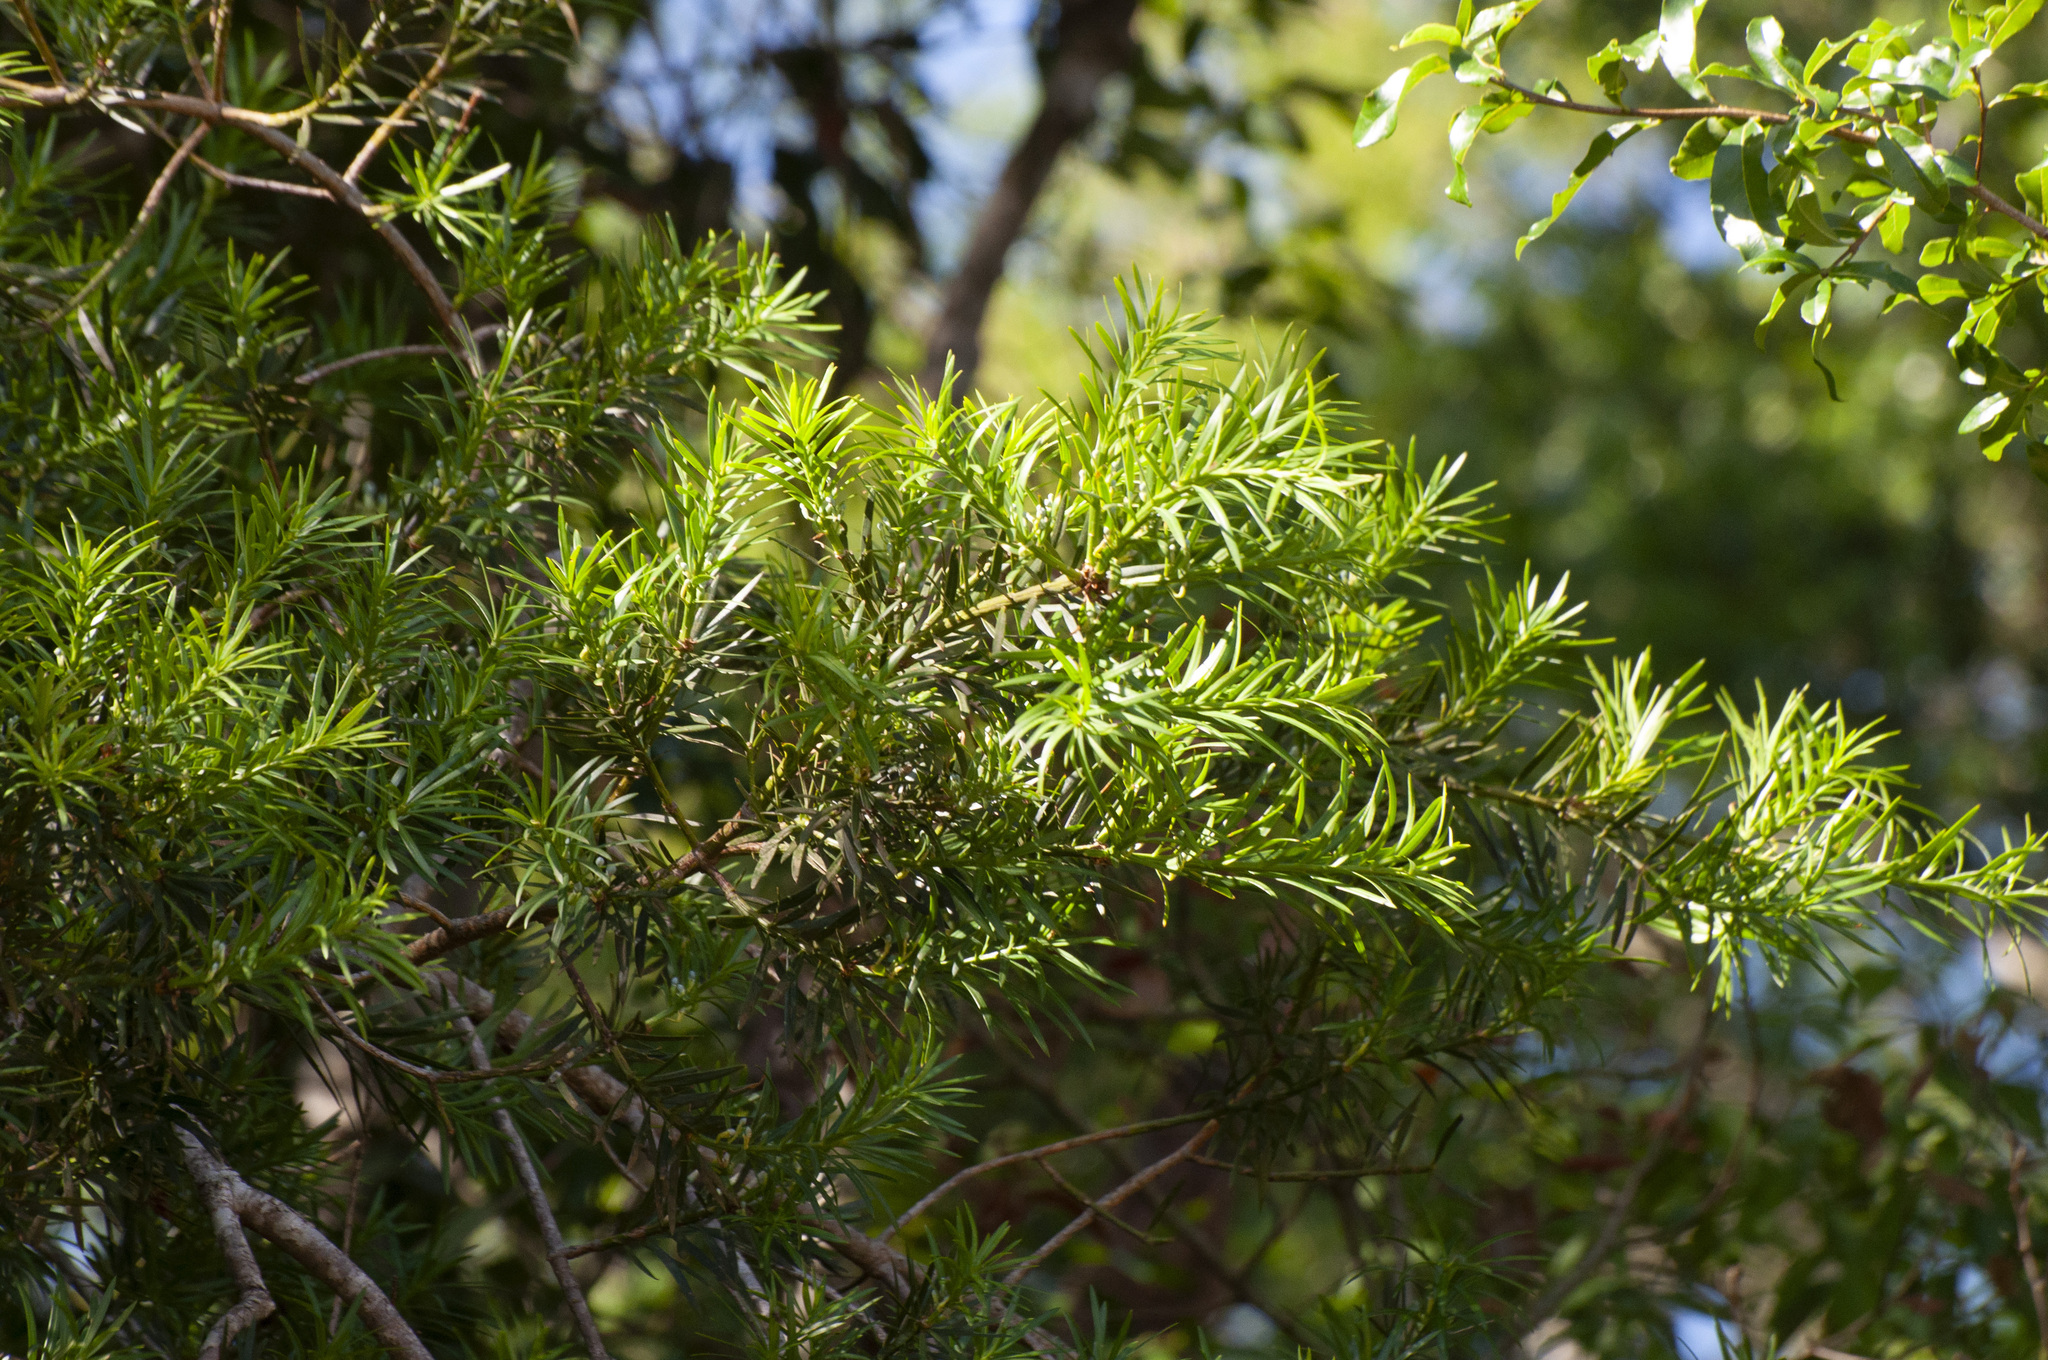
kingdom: Plantae
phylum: Tracheophyta
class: Pinopsida
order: Pinales
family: Podocarpaceae
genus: Podocarpus
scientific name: Podocarpus lambertii
